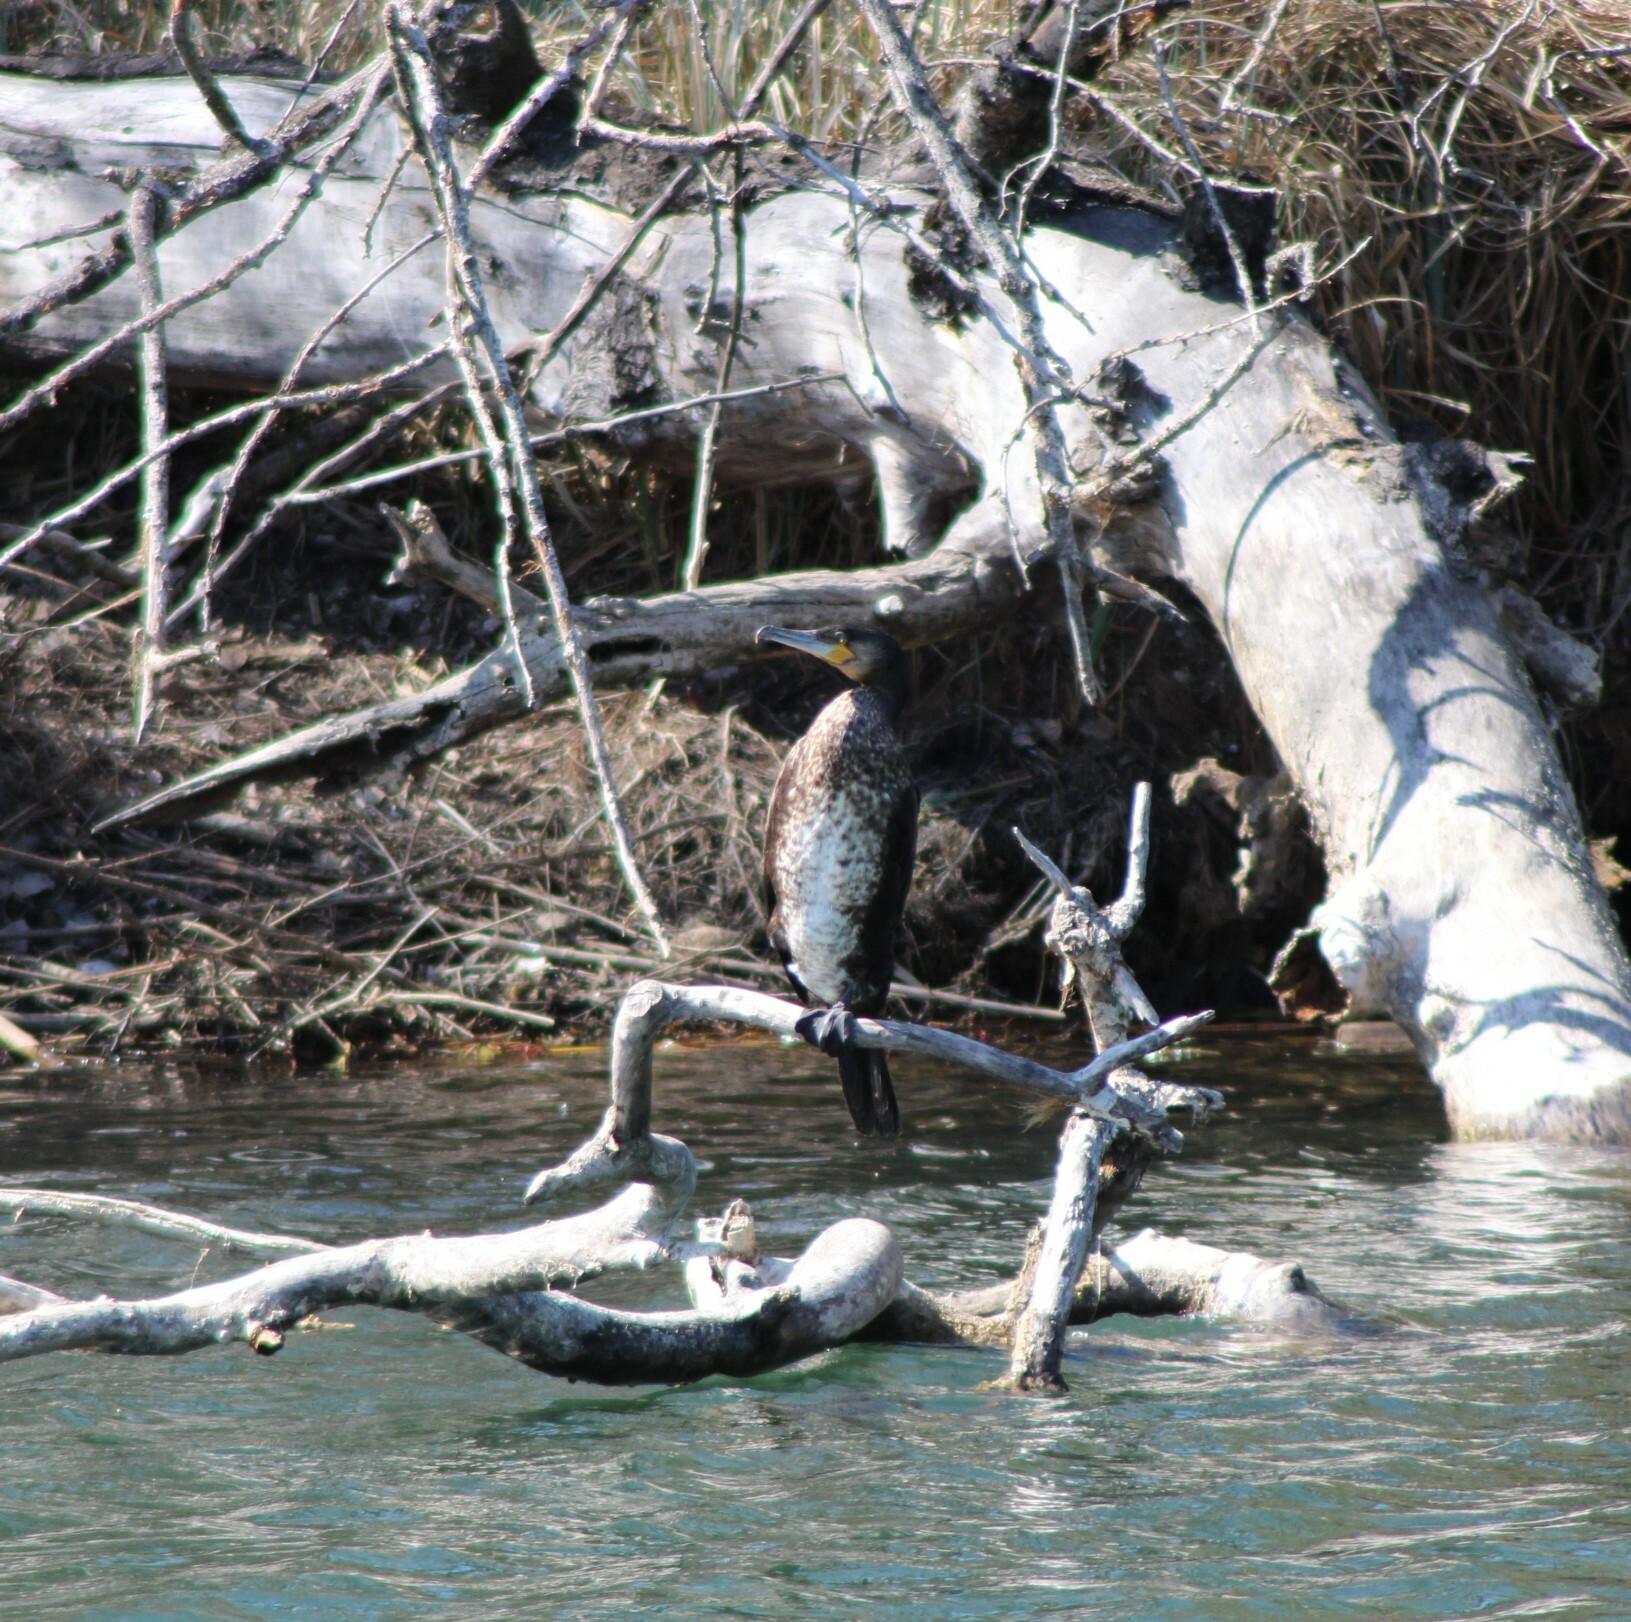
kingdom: Animalia
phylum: Chordata
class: Aves
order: Suliformes
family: Phalacrocoracidae
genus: Phalacrocorax
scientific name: Phalacrocorax carbo
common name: Great cormorant
